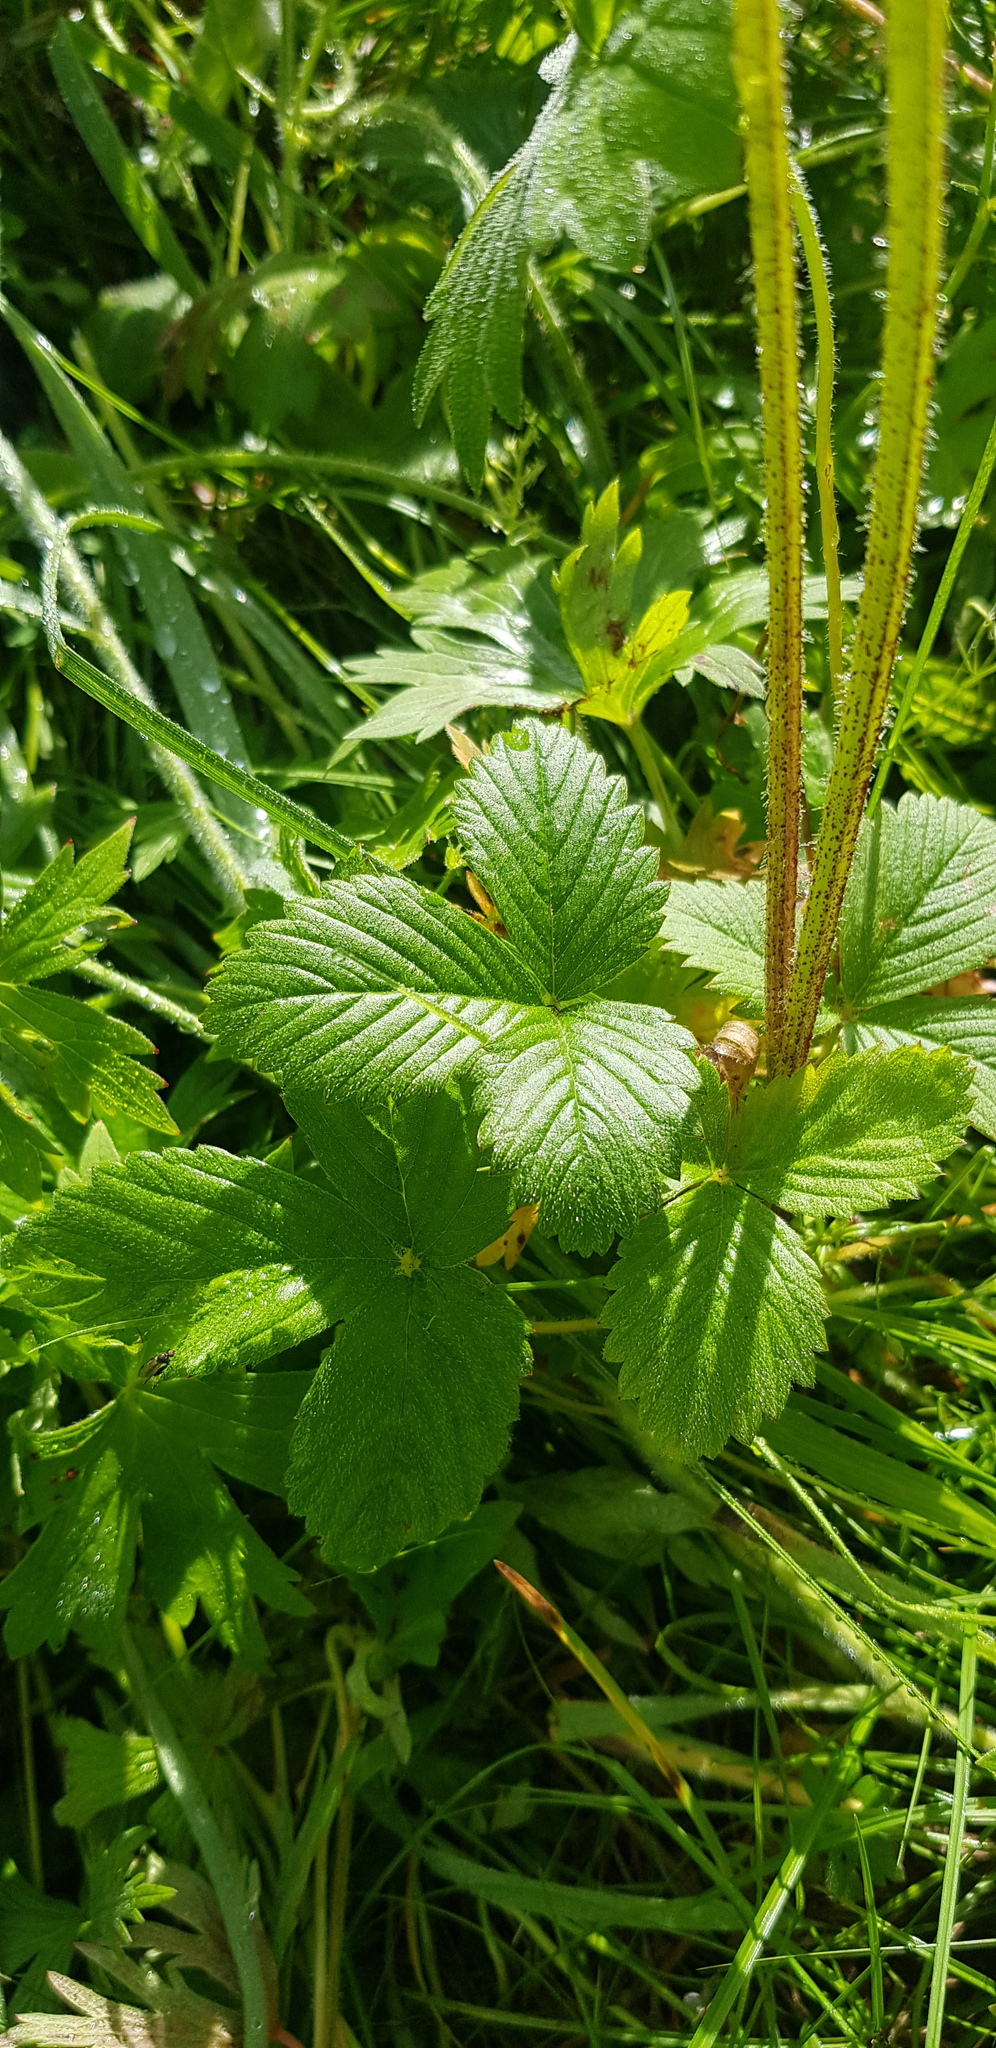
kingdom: Plantae
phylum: Tracheophyta
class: Magnoliopsida
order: Rosales
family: Rosaceae
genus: Fragaria
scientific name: Fragaria viridis
